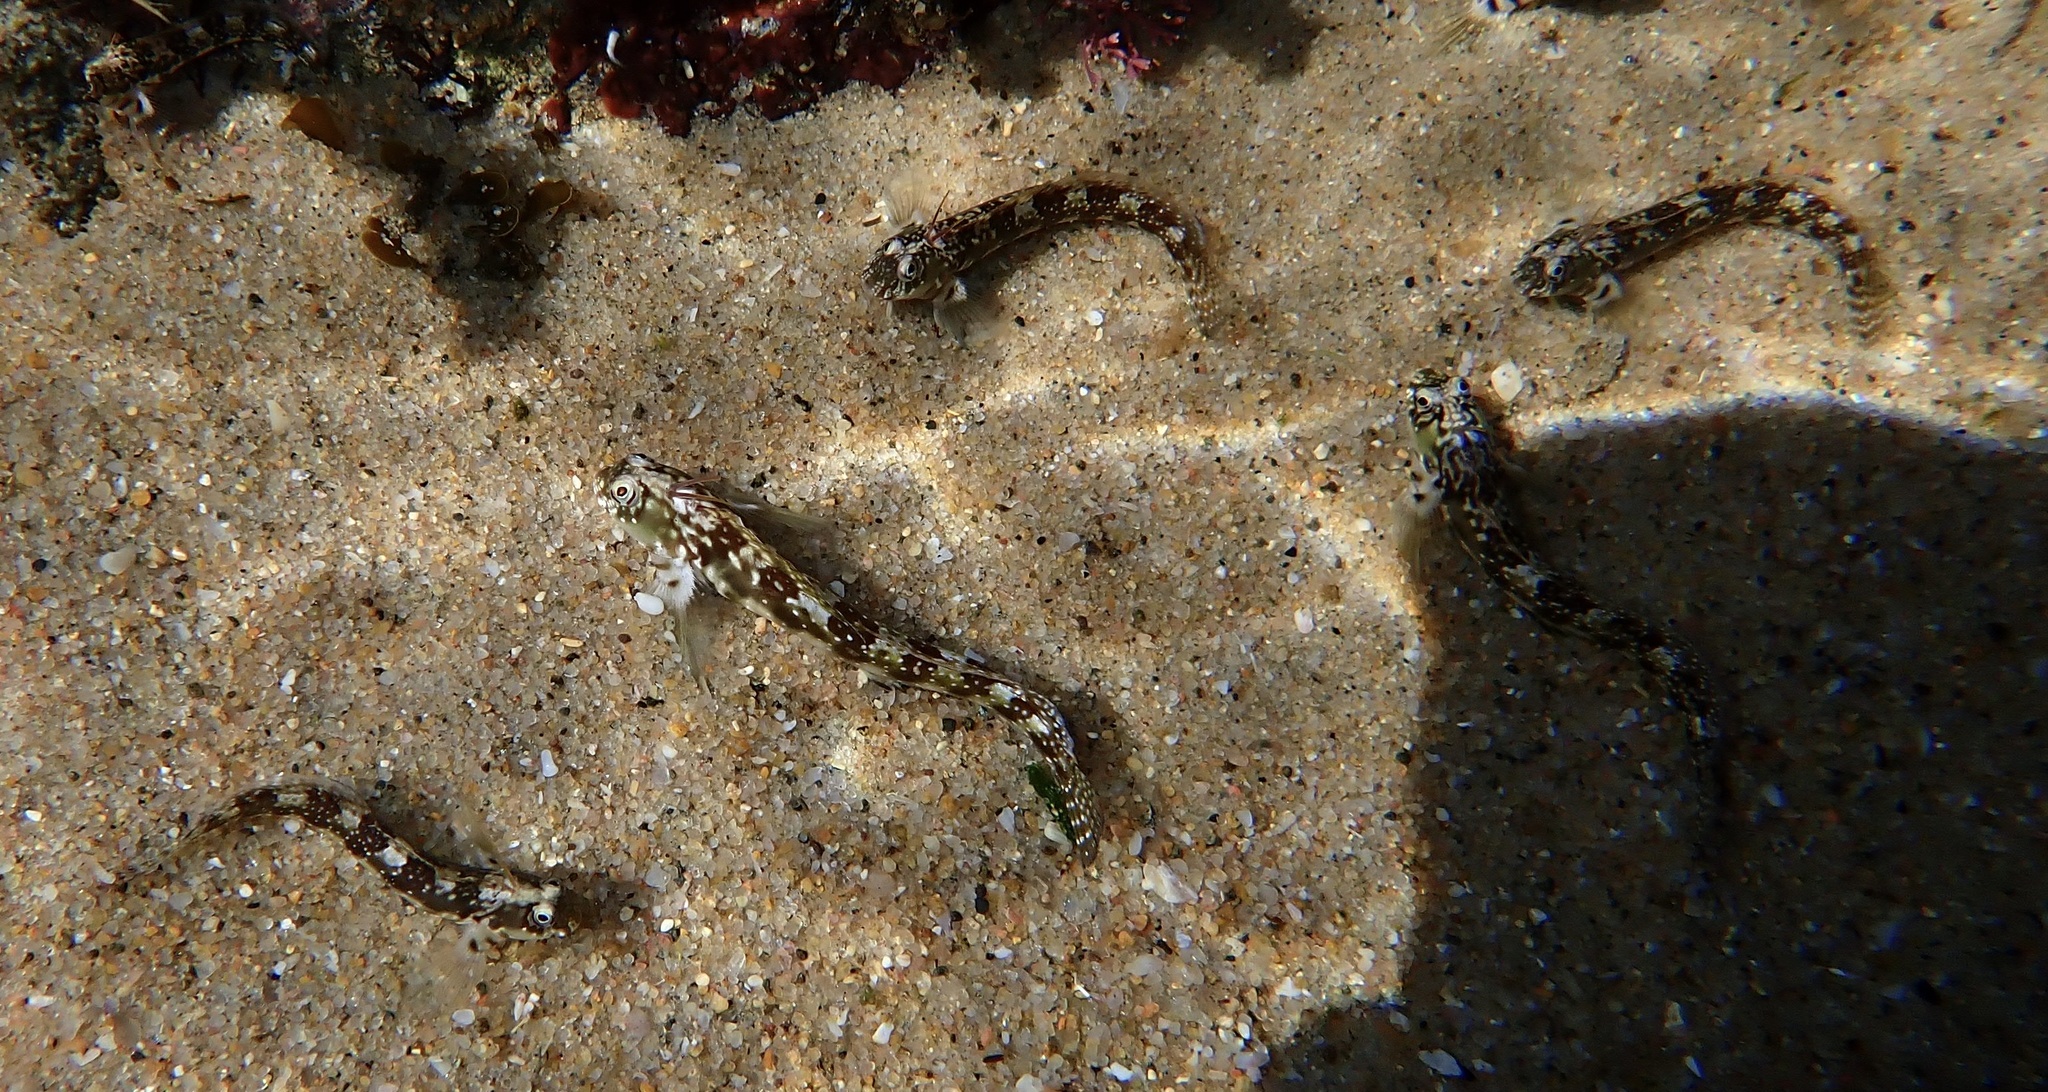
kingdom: Animalia
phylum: Chordata
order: Perciformes
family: Blenniidae
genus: Antennablennius
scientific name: Antennablennius bifilum
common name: Horned rockskipper
